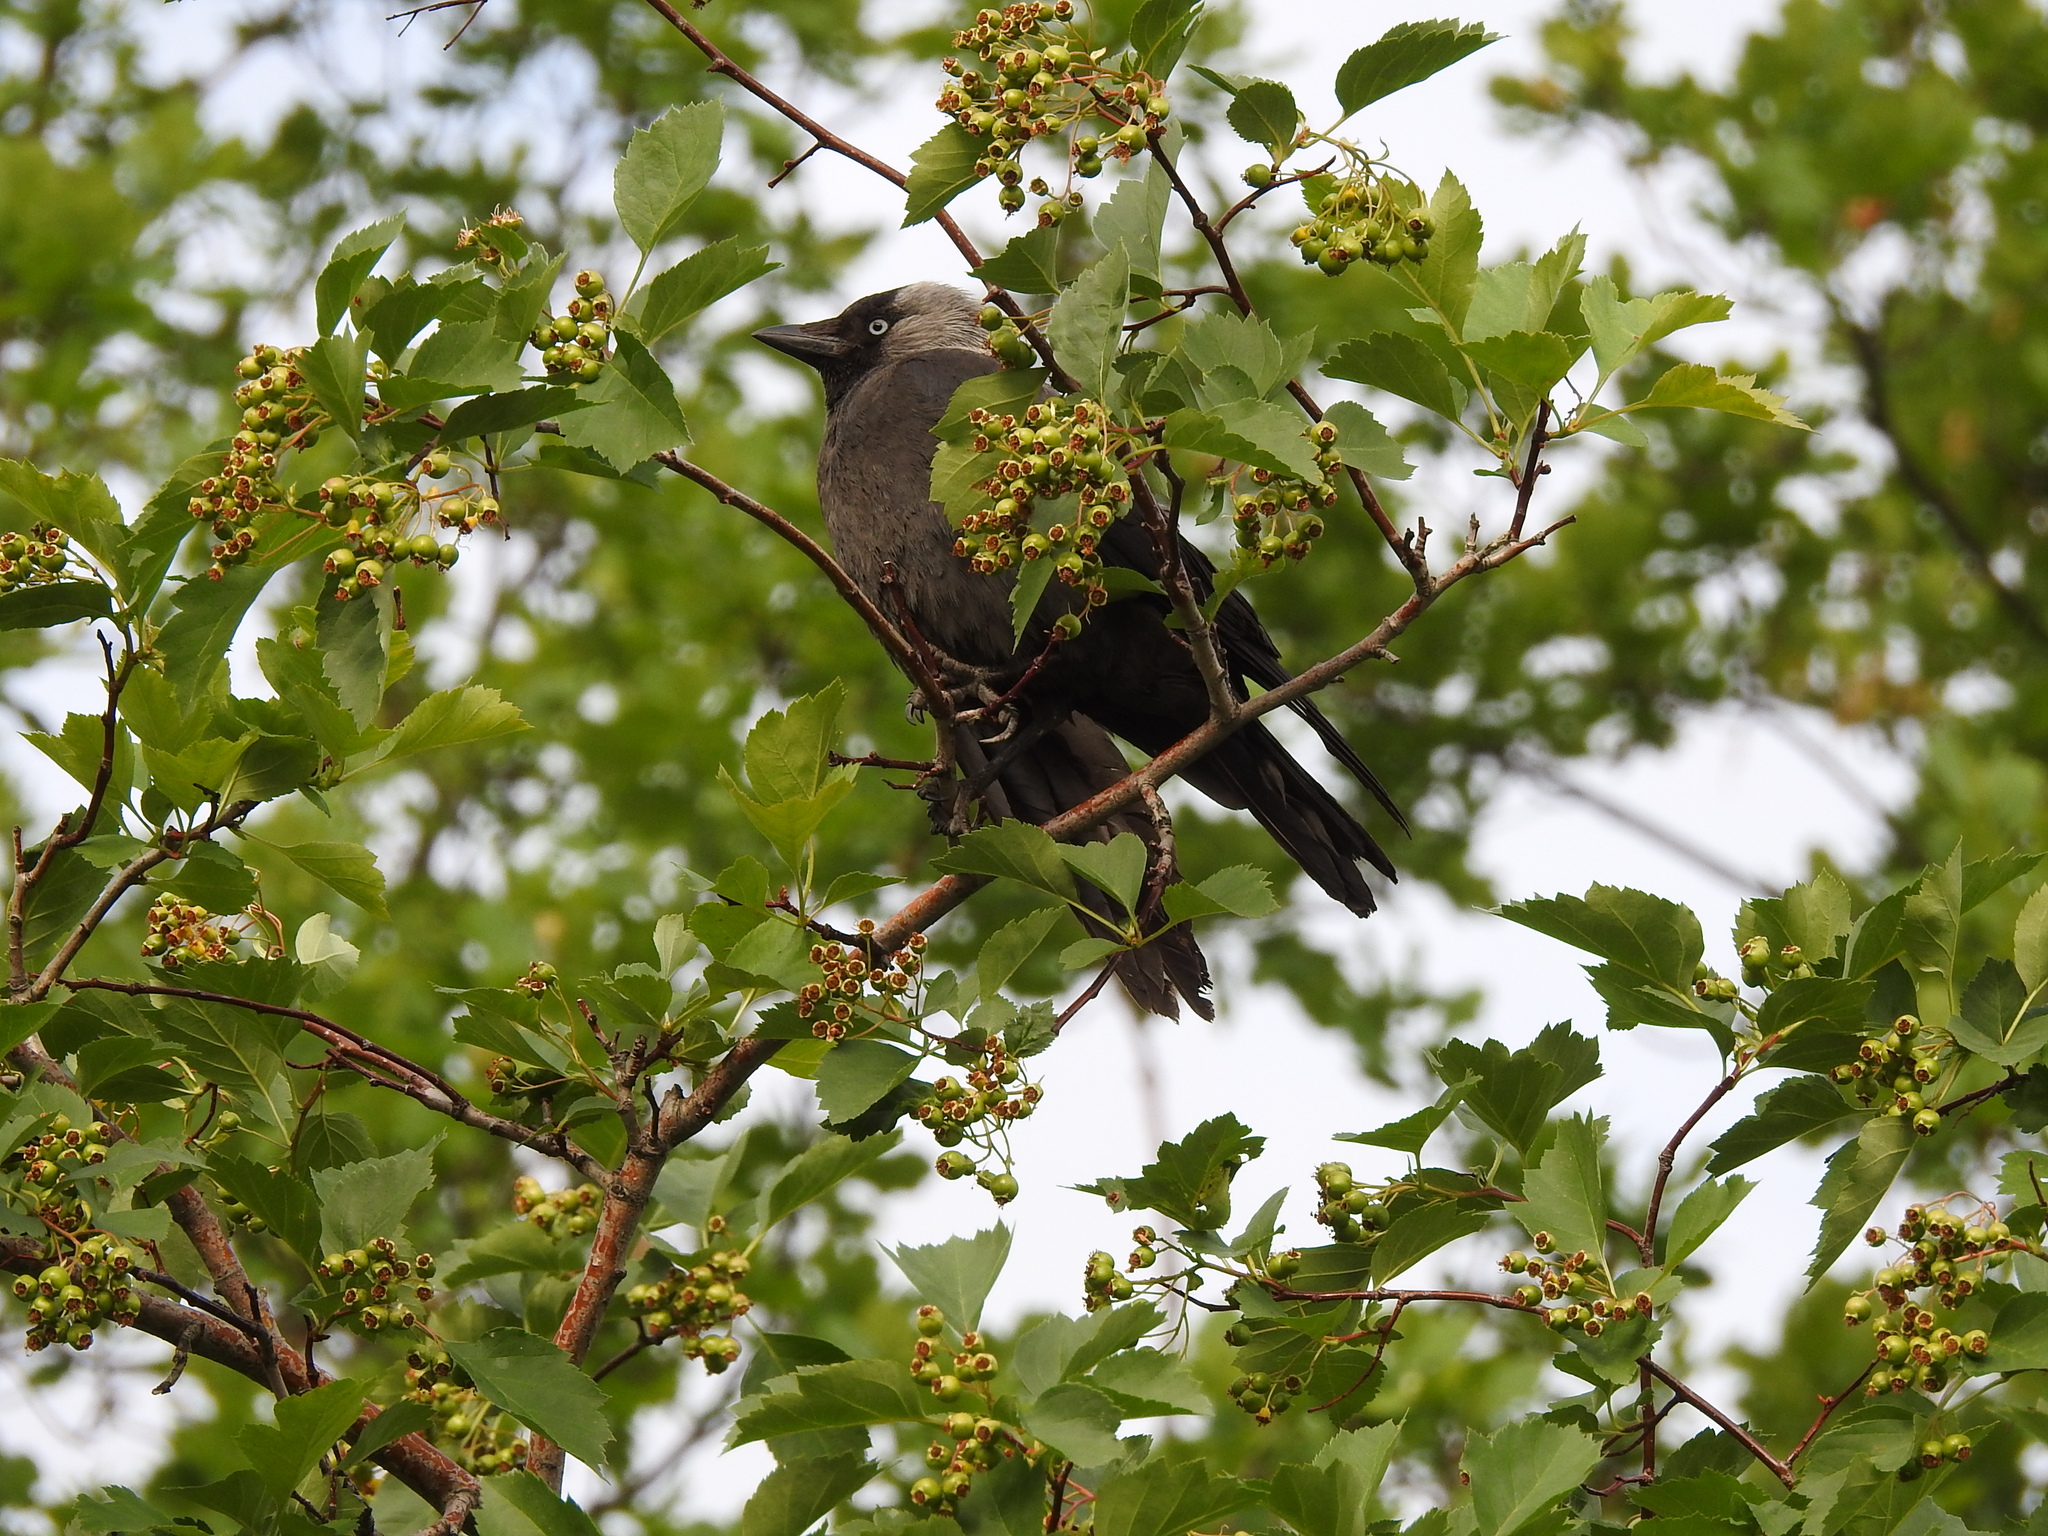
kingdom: Animalia
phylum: Chordata
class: Aves
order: Passeriformes
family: Corvidae
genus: Coloeus
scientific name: Coloeus monedula
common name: Western jackdaw
